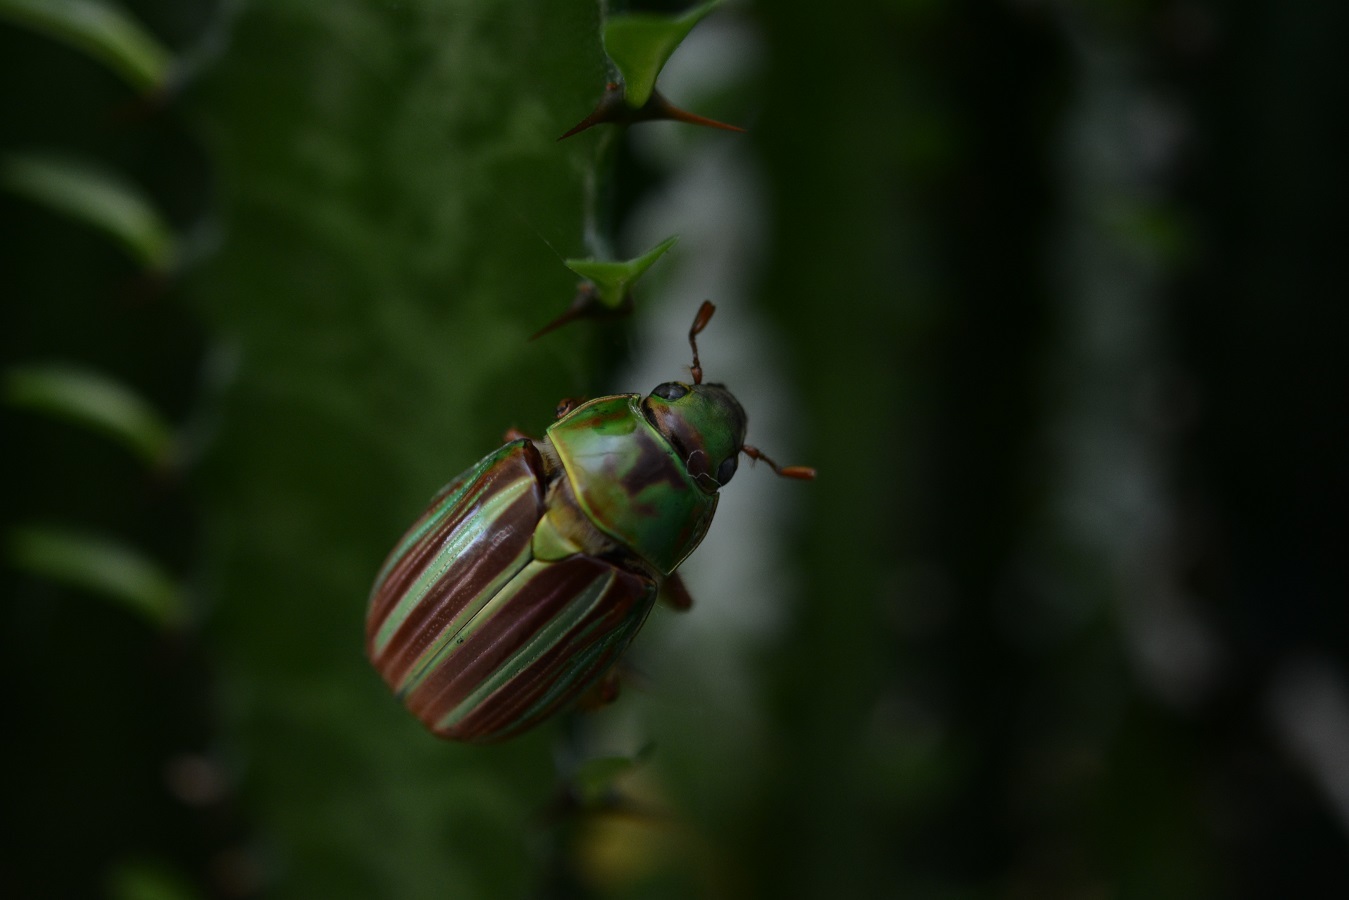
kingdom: Animalia
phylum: Arthropoda
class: Insecta
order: Coleoptera
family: Scarabaeidae
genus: Chrysina
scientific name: Chrysina quetzalcoatli
